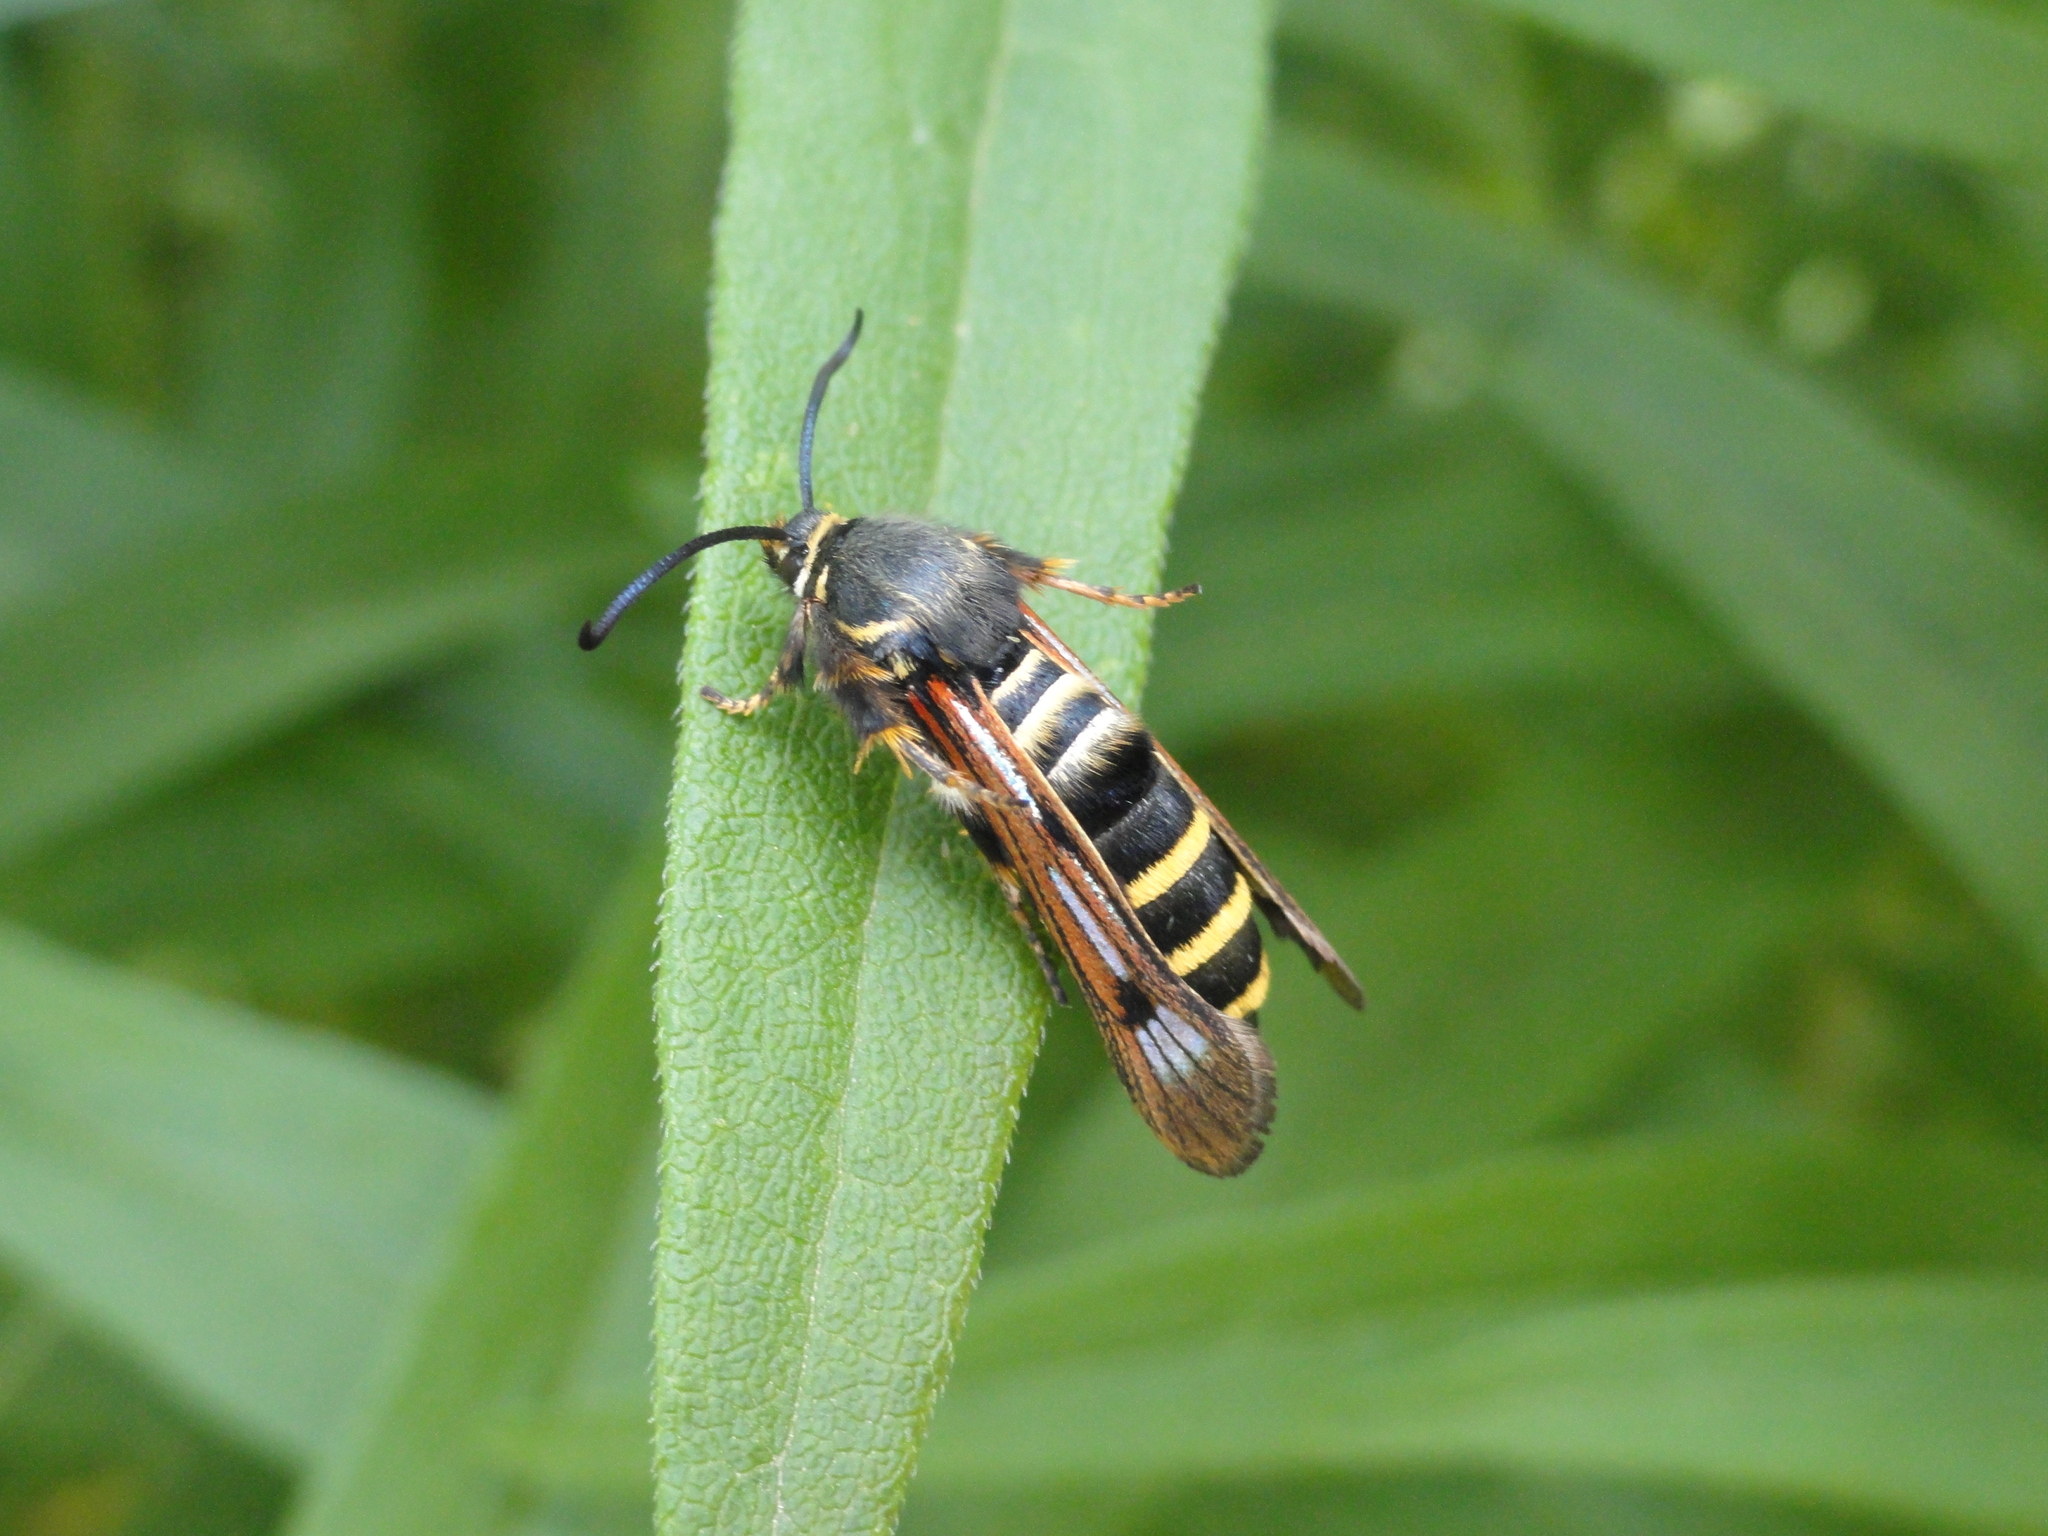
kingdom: Animalia
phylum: Arthropoda
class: Insecta
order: Lepidoptera
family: Sesiidae
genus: Pennisetia
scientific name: Pennisetia hylaeiformis
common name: Raspberry clearwing
